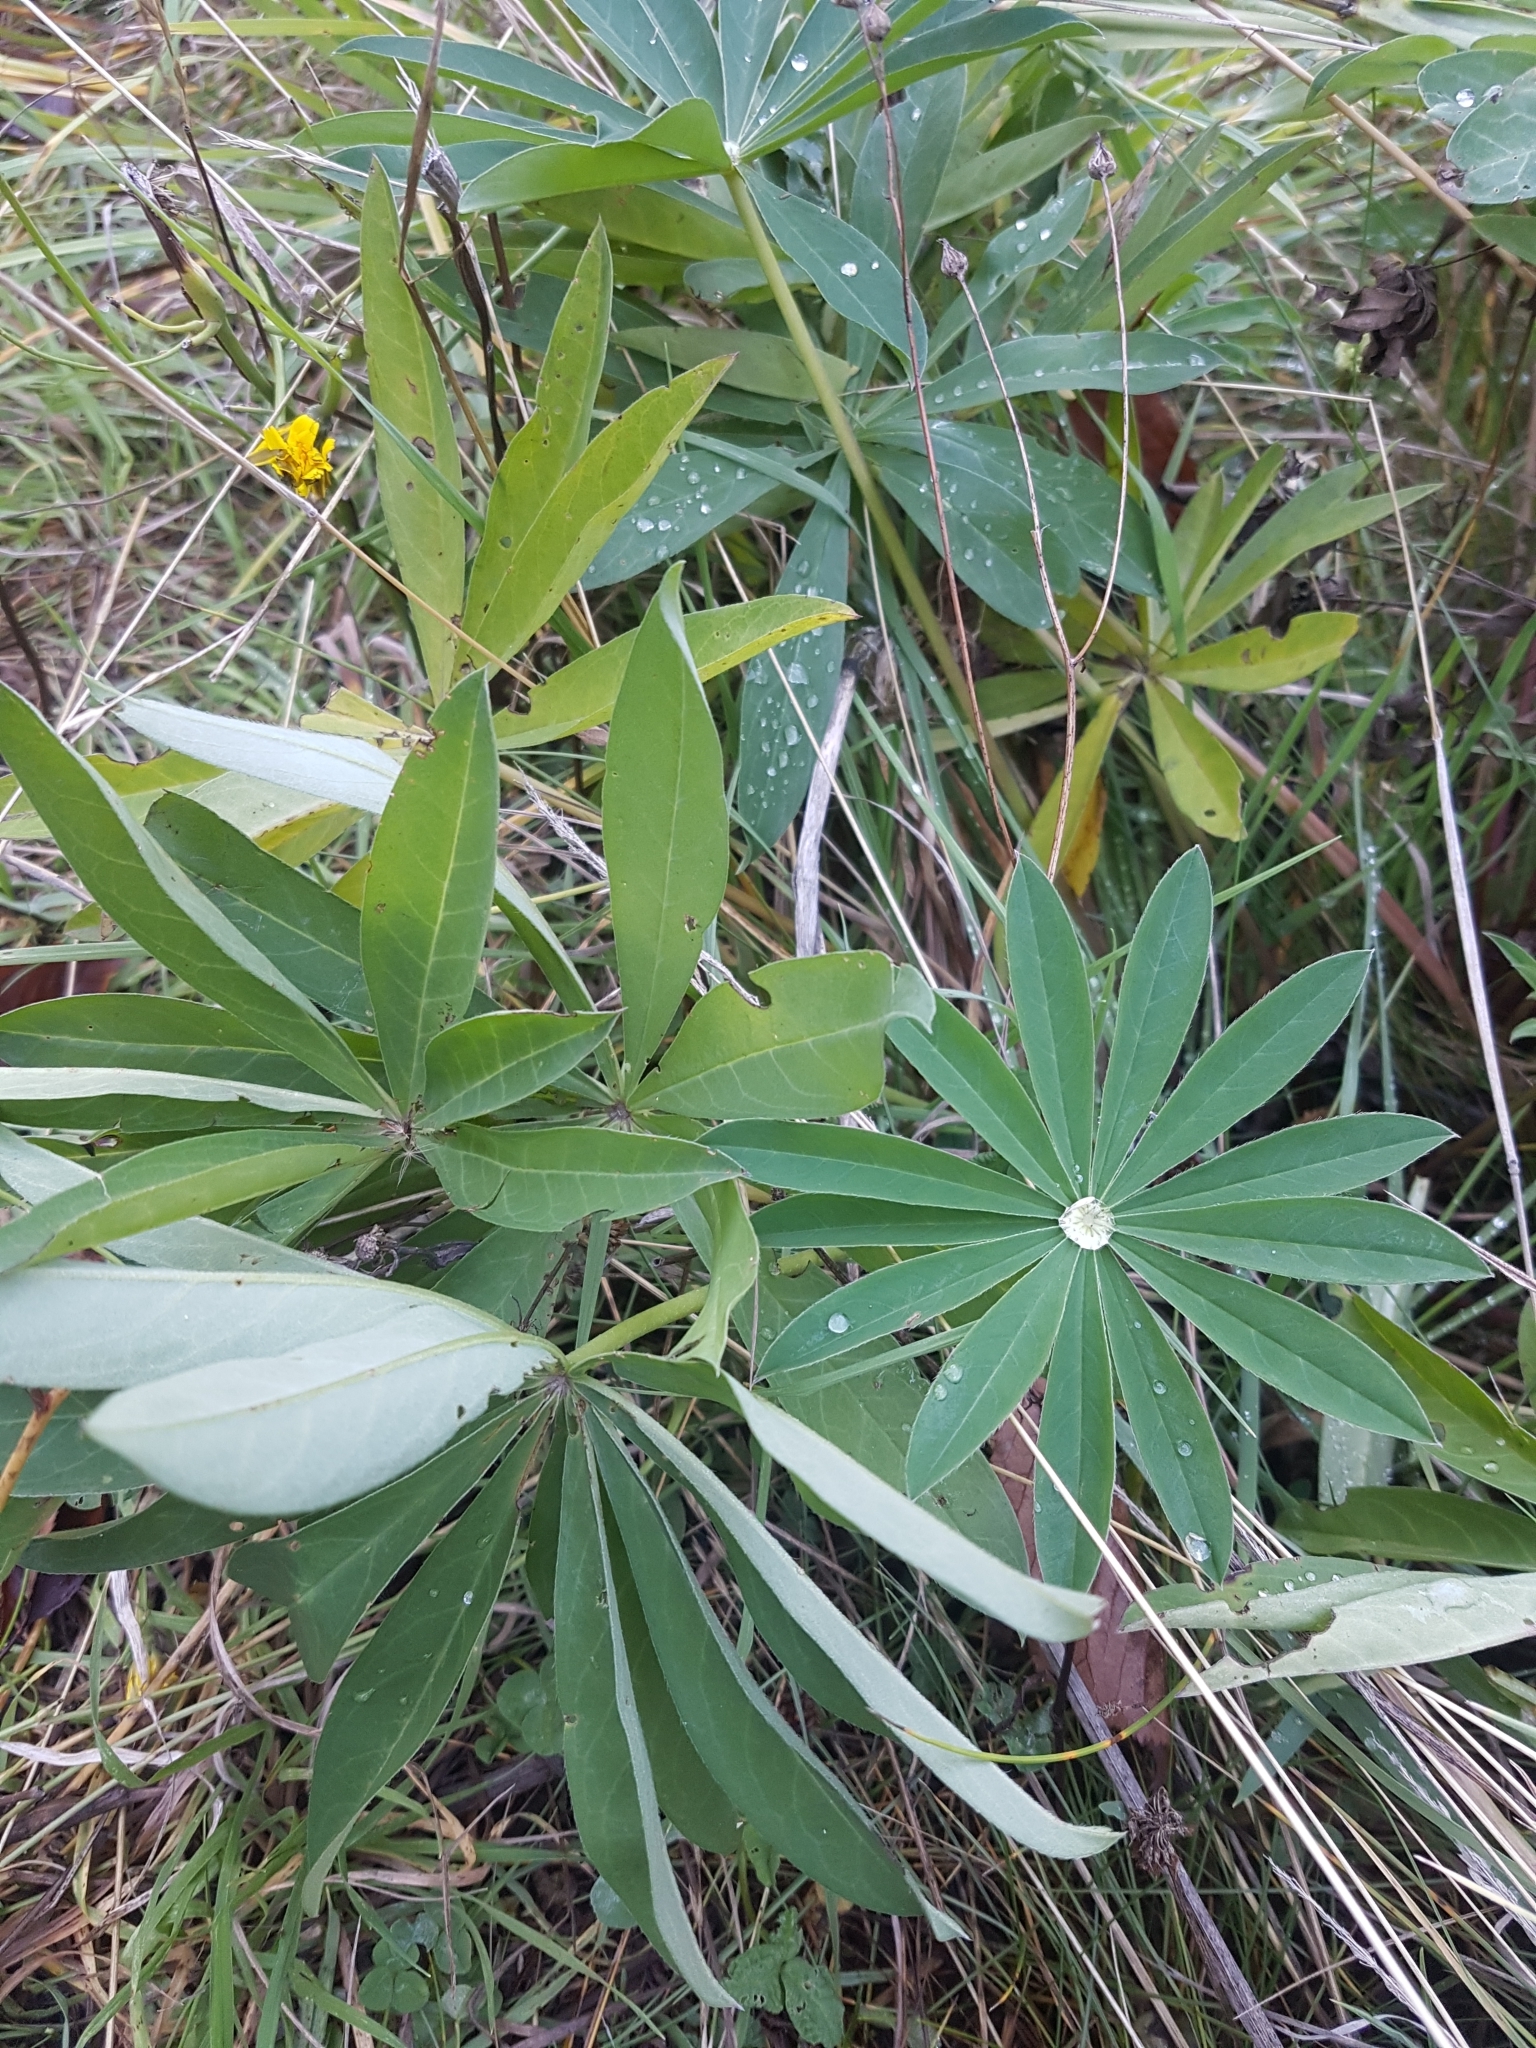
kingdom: Plantae
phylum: Tracheophyta
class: Magnoliopsida
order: Fabales
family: Fabaceae
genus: Lupinus
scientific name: Lupinus polyphyllus
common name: Garden lupin
